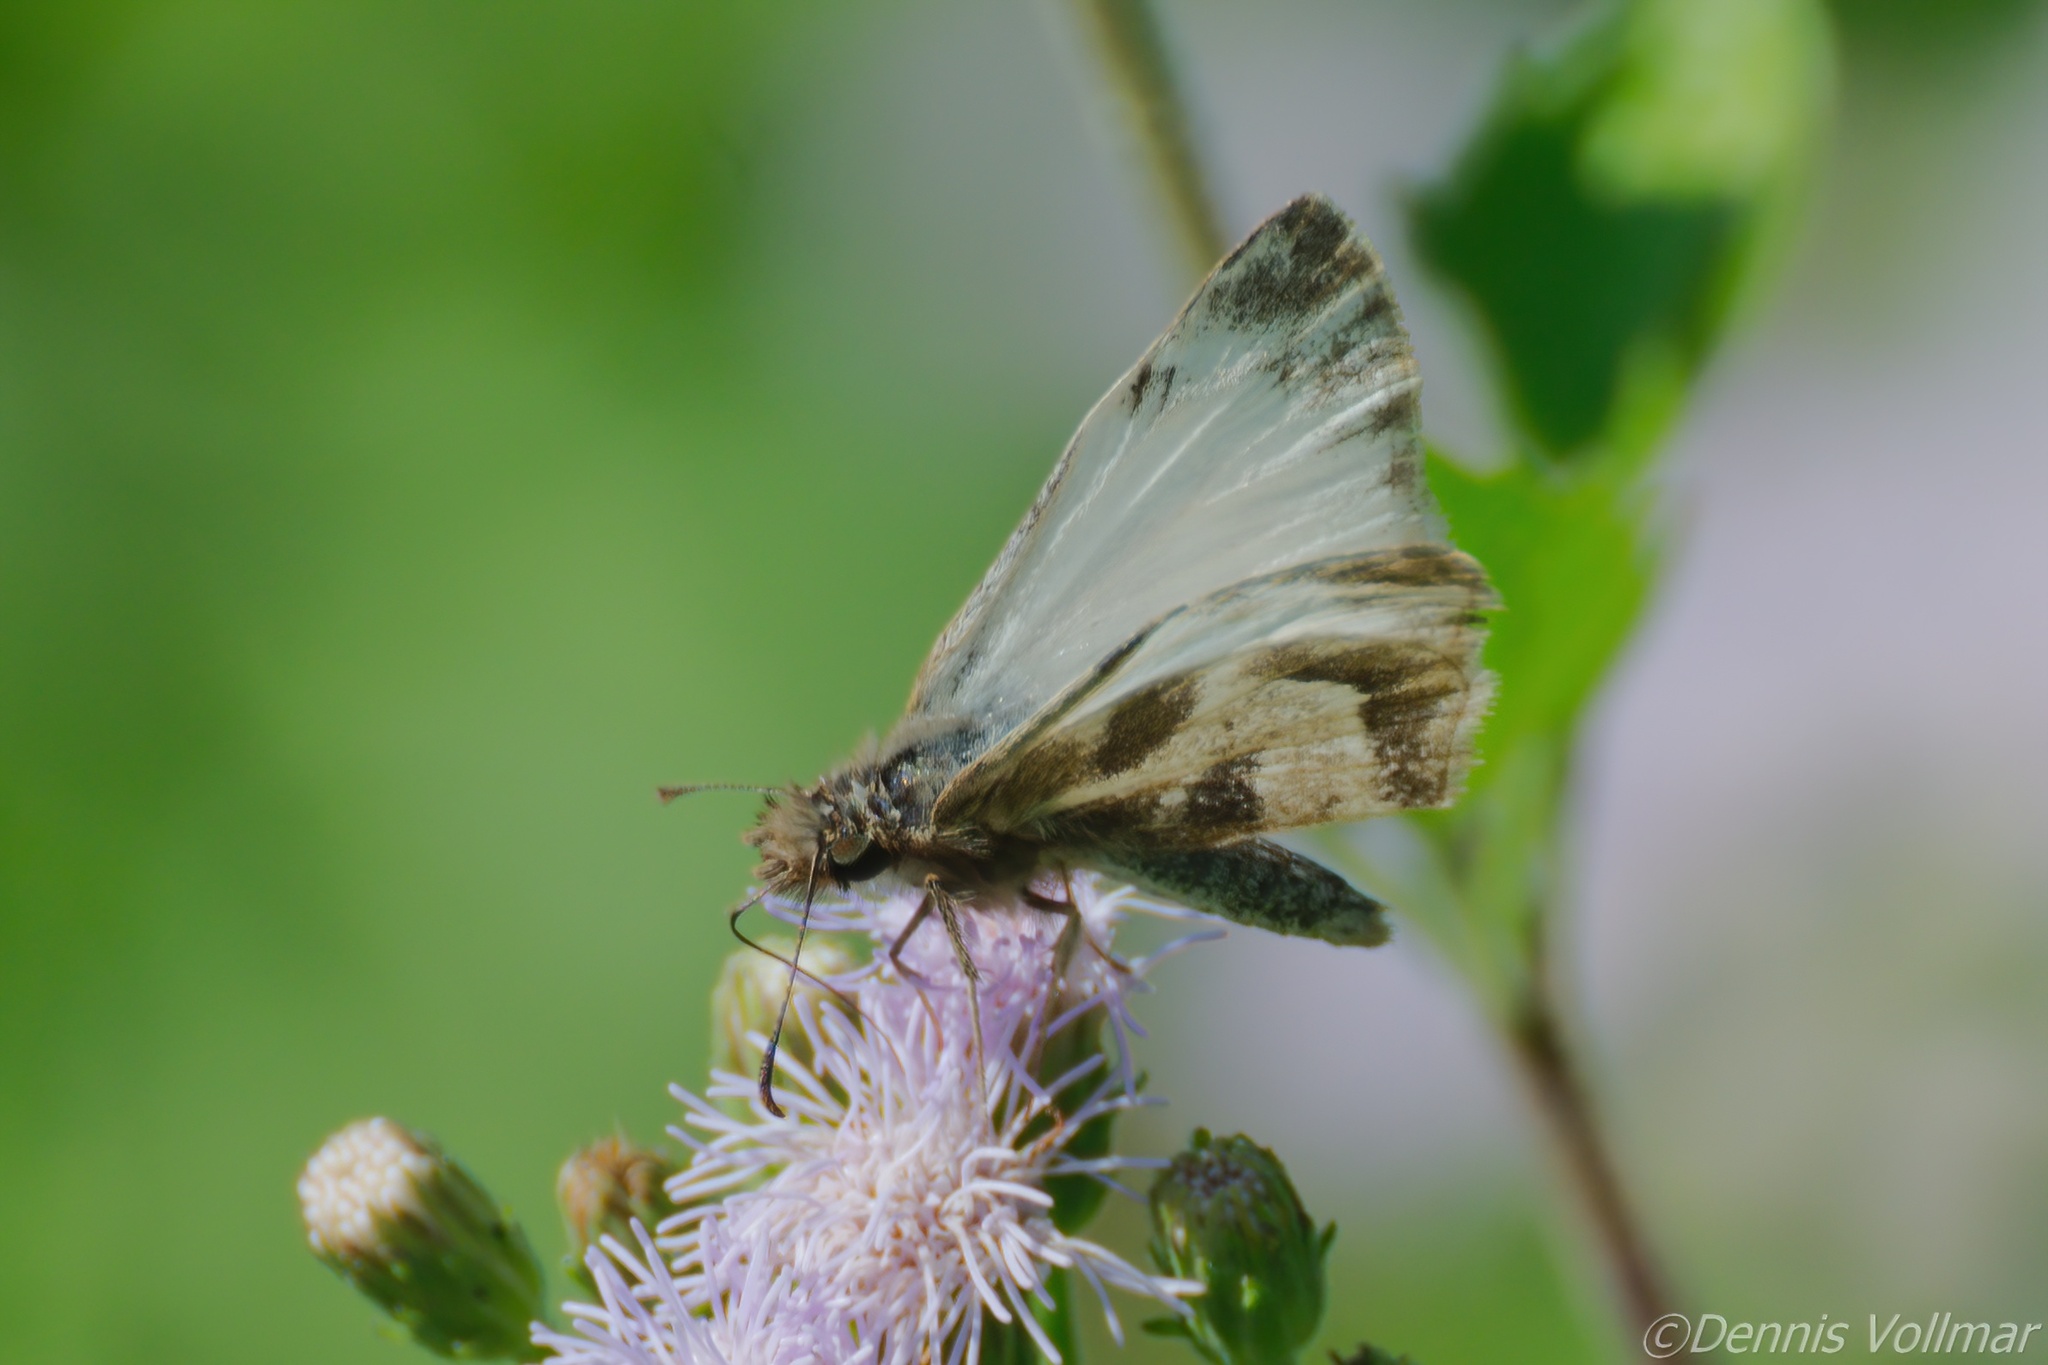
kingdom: Animalia
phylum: Arthropoda
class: Insecta
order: Lepidoptera
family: Hesperiidae
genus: Heliopetes
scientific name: Heliopetes macaira
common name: Turk's-cap white-skipper
